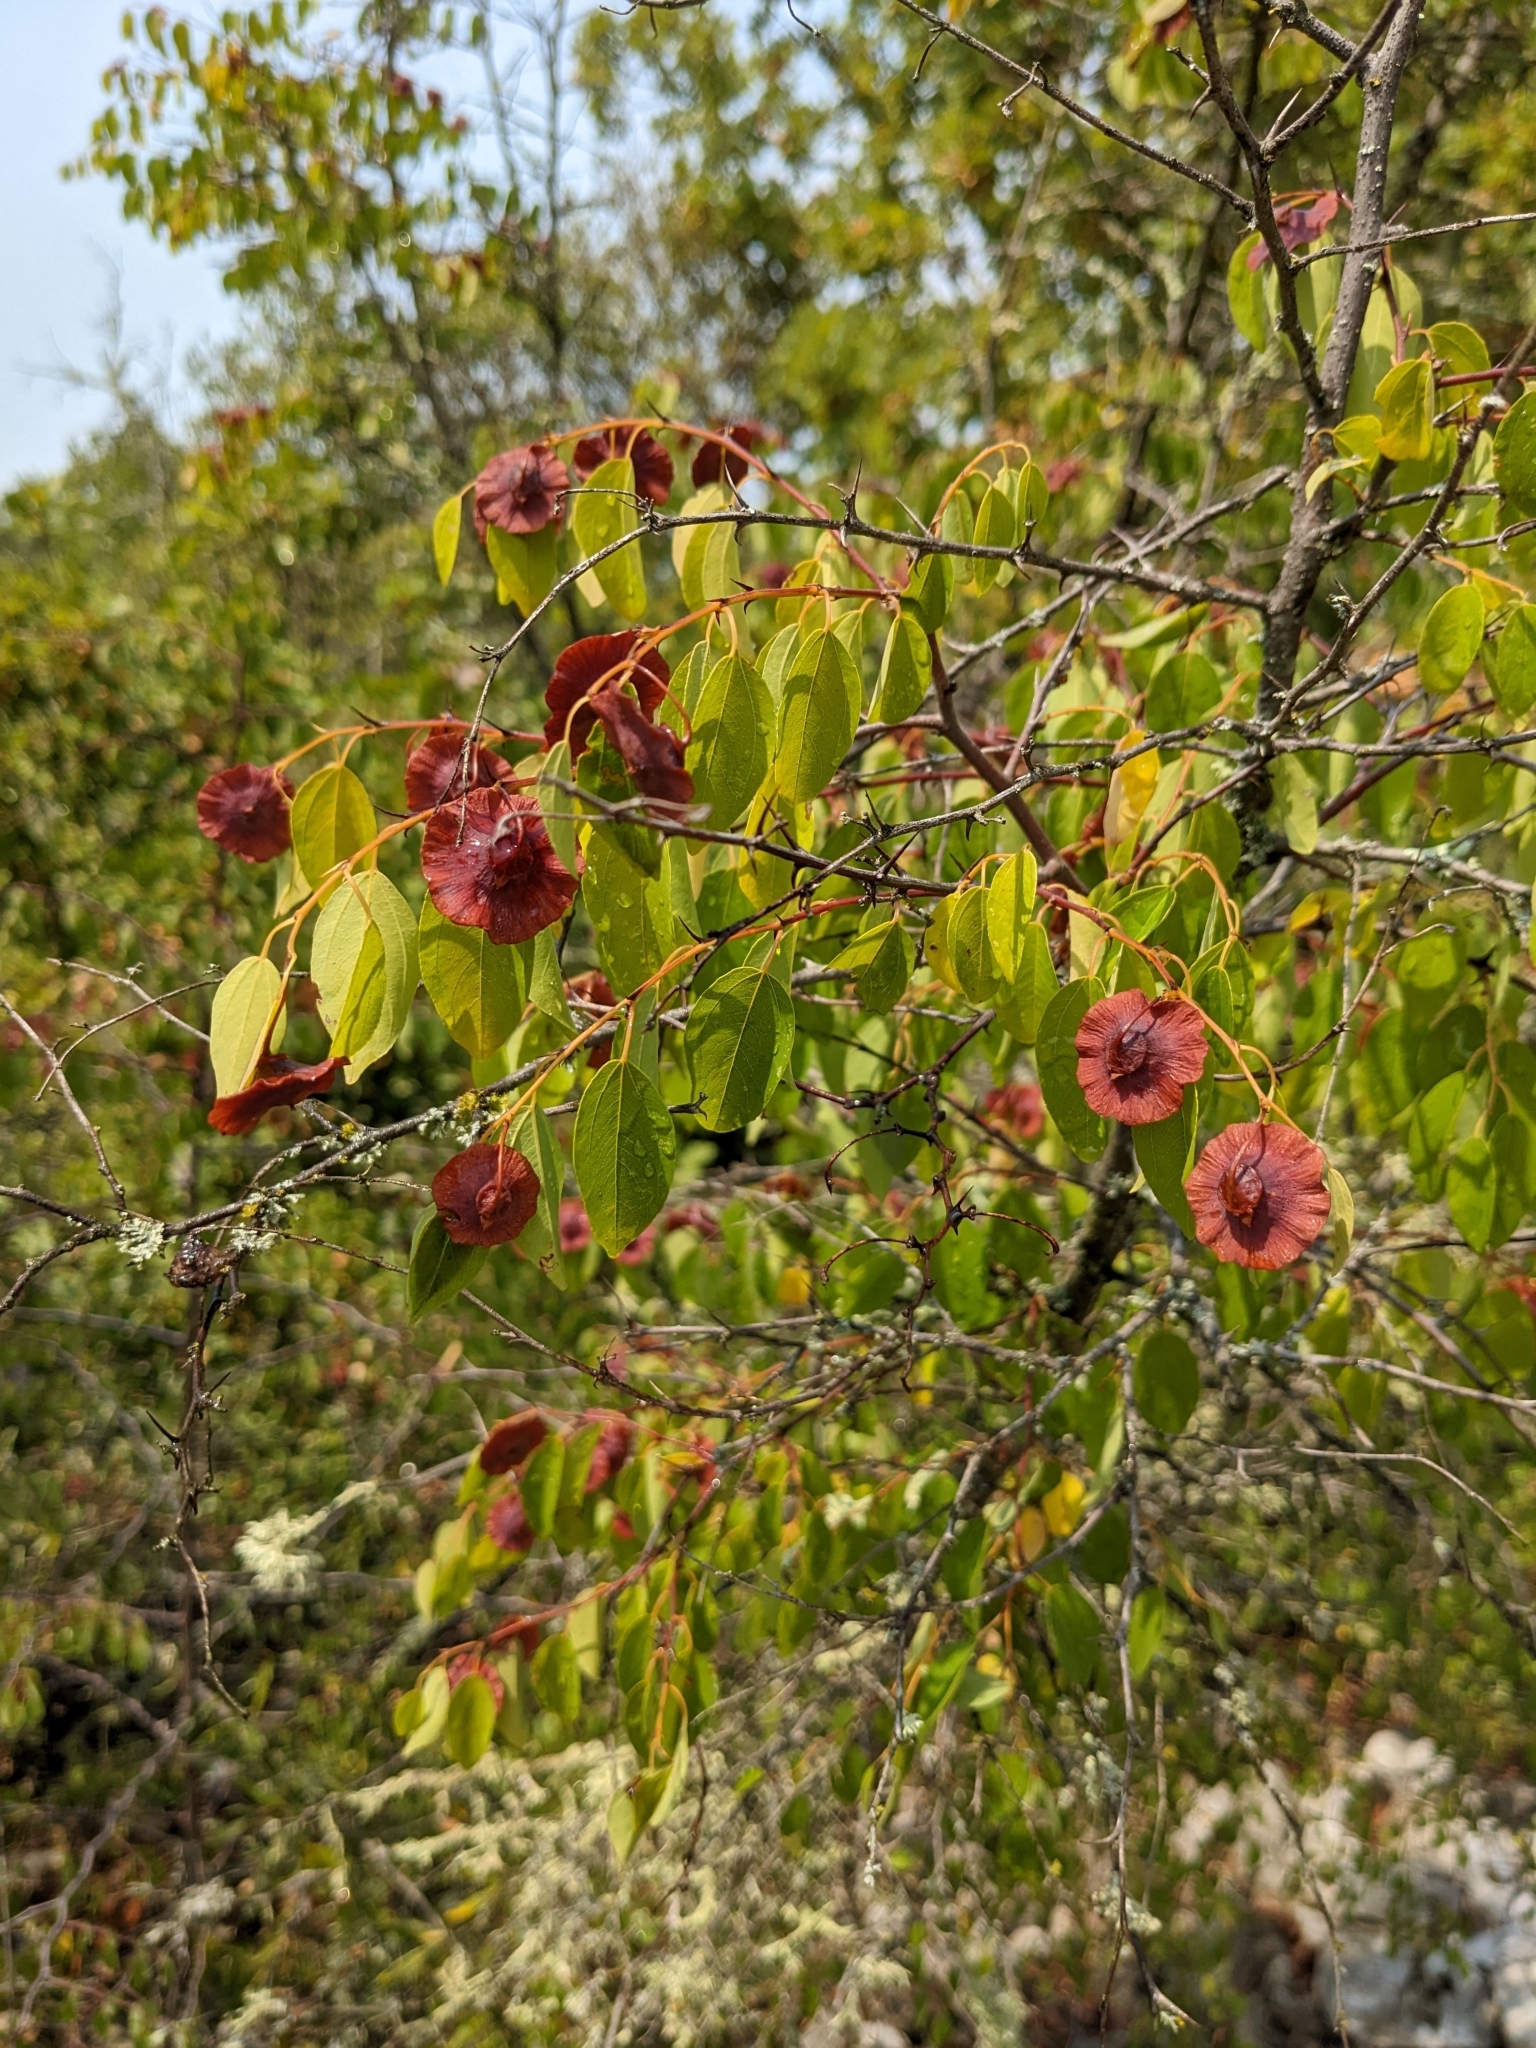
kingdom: Plantae
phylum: Tracheophyta
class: Magnoliopsida
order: Rosales
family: Rhamnaceae
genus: Paliurus
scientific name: Paliurus spina-christi
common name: Jeruselem thorn
